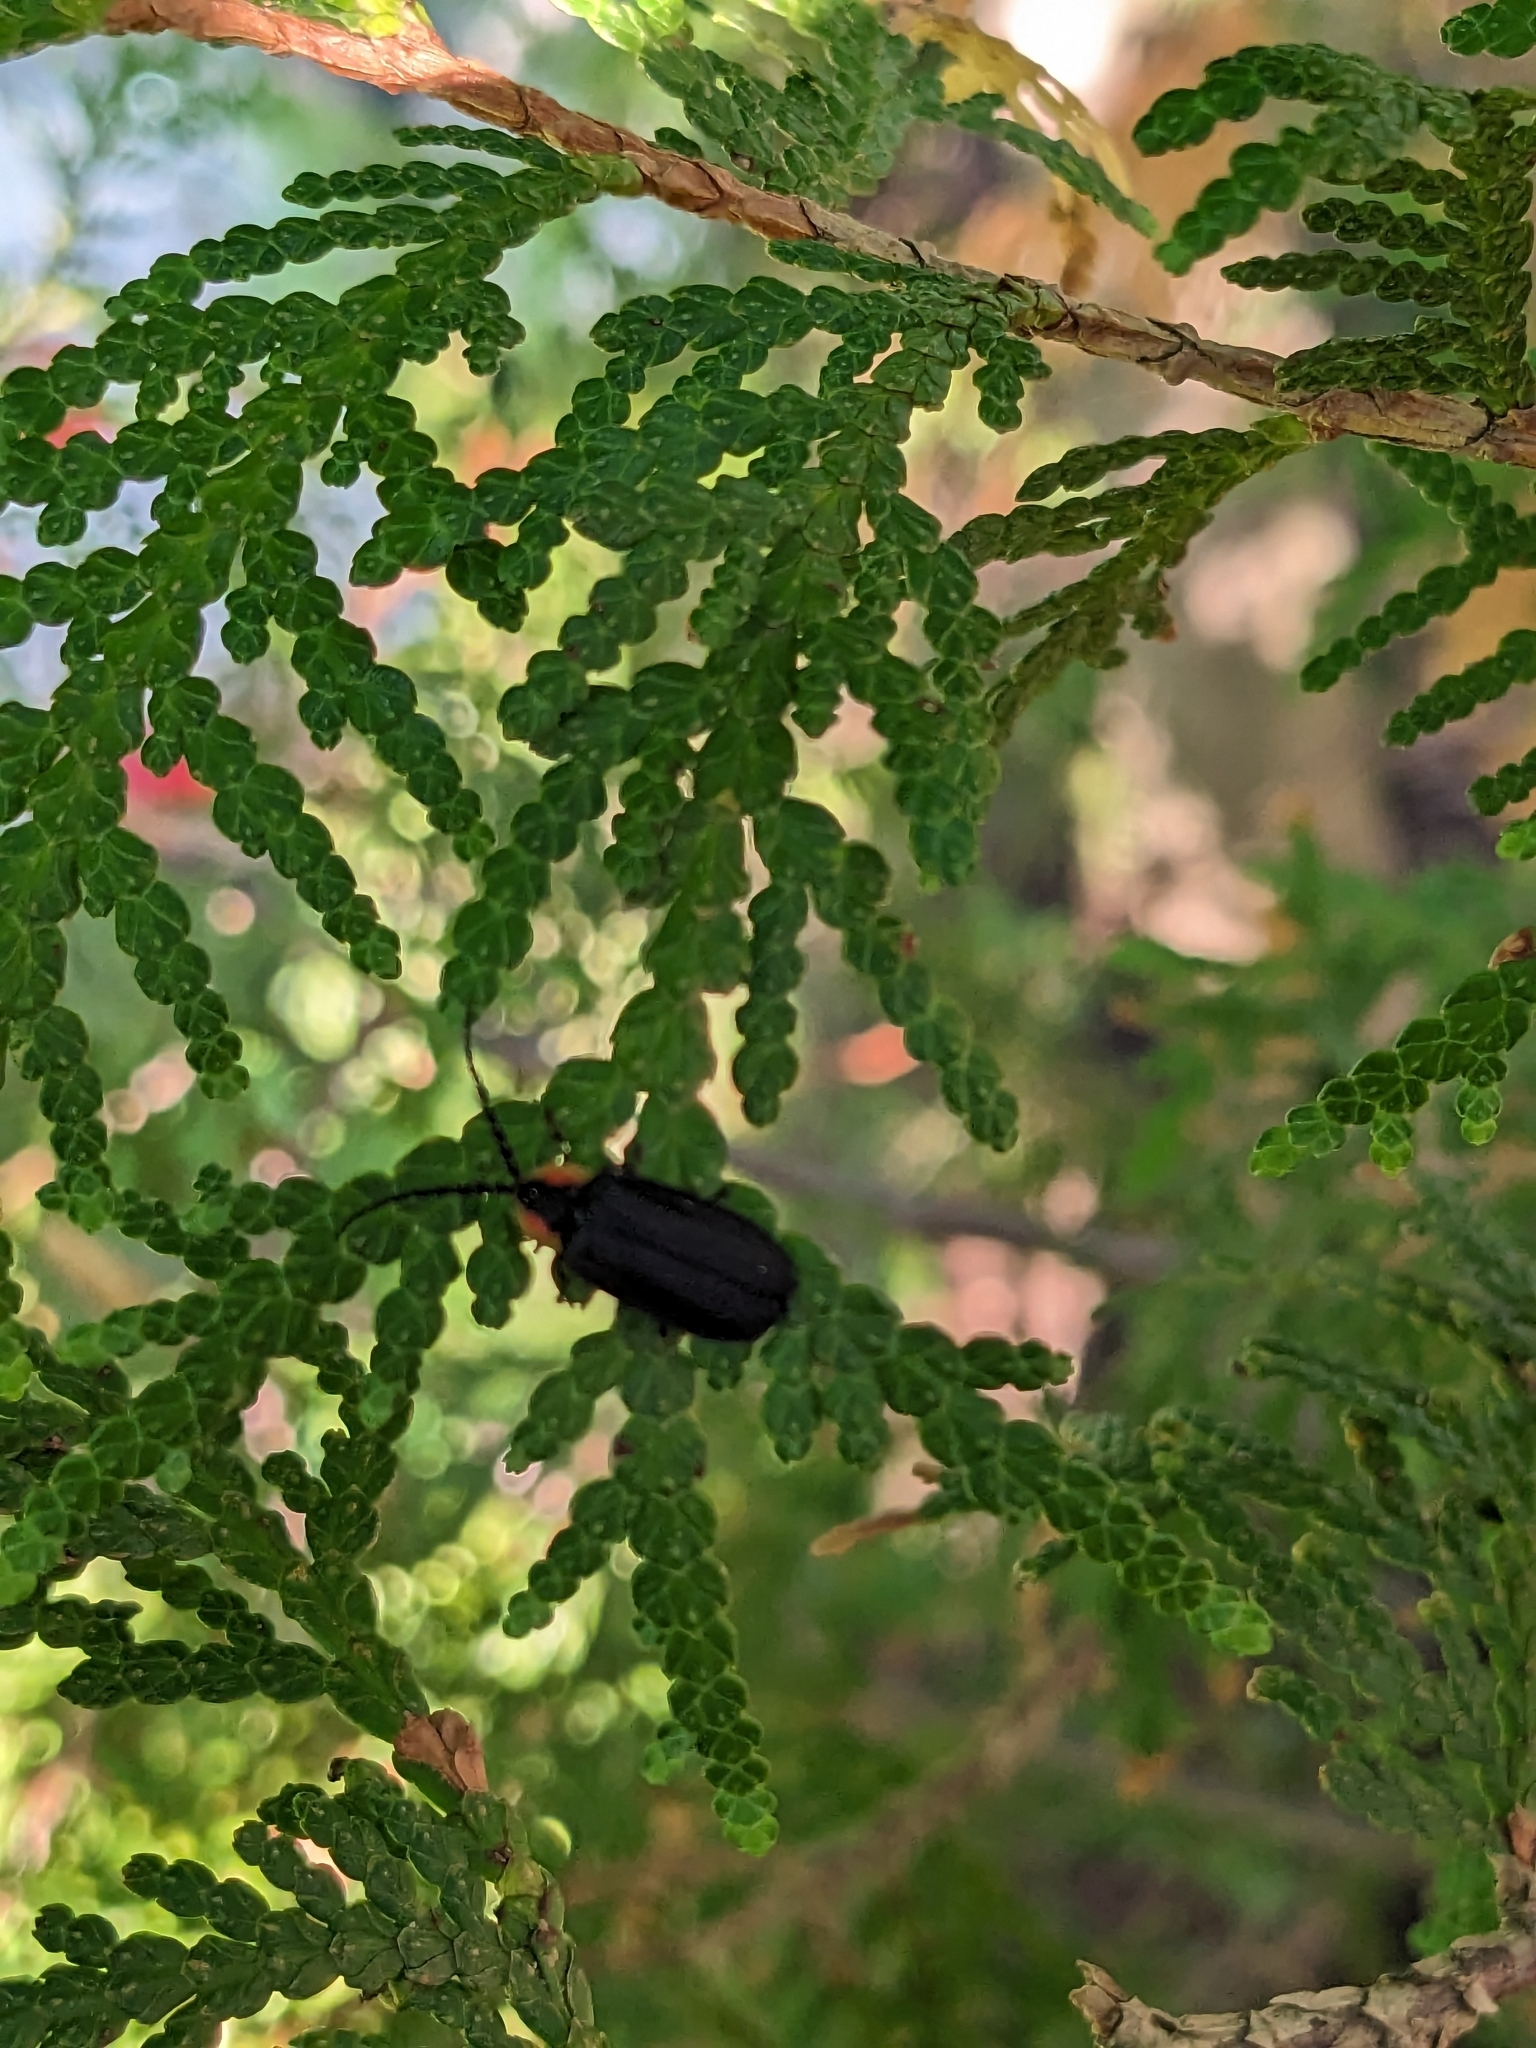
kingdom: Animalia
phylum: Arthropoda
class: Insecta
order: Coleoptera
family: Lampyridae
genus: Lucidota
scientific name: Lucidota atra
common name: Black firefly
